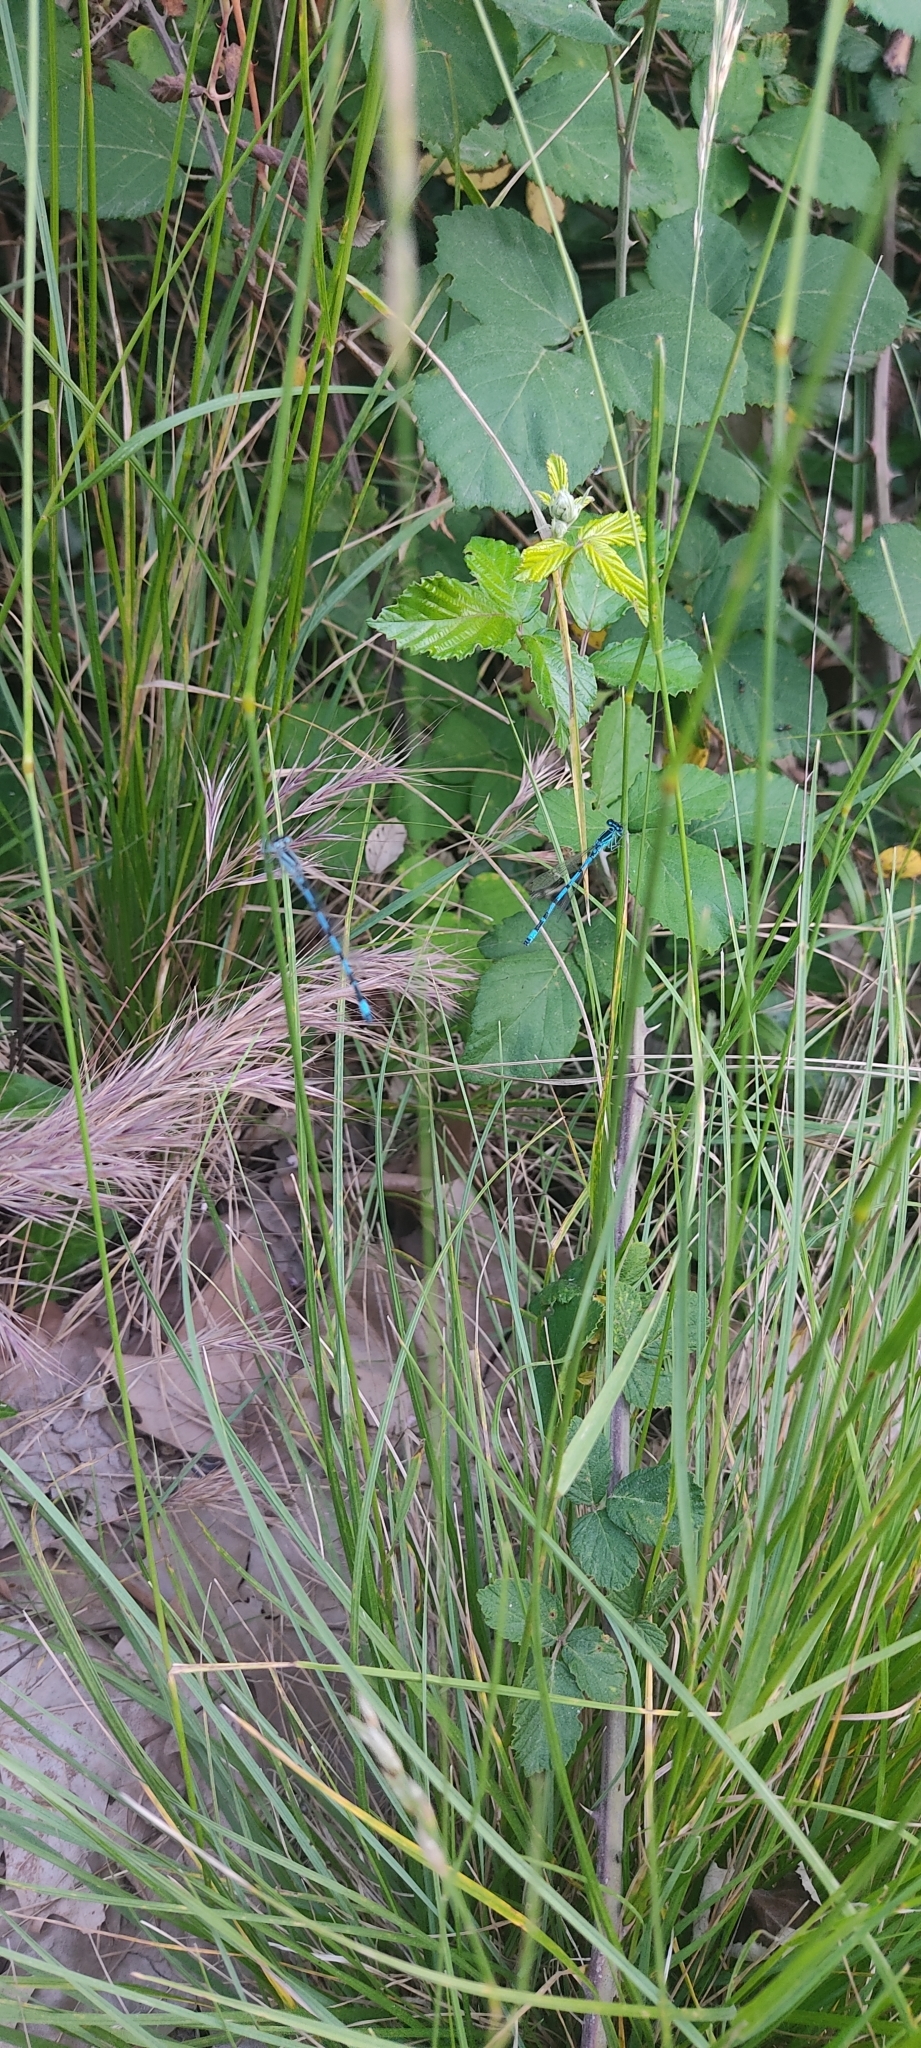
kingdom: Animalia
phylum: Arthropoda
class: Insecta
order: Odonata
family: Coenagrionidae
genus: Coenagrion
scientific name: Coenagrion mercuriale
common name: Southern damselfly
